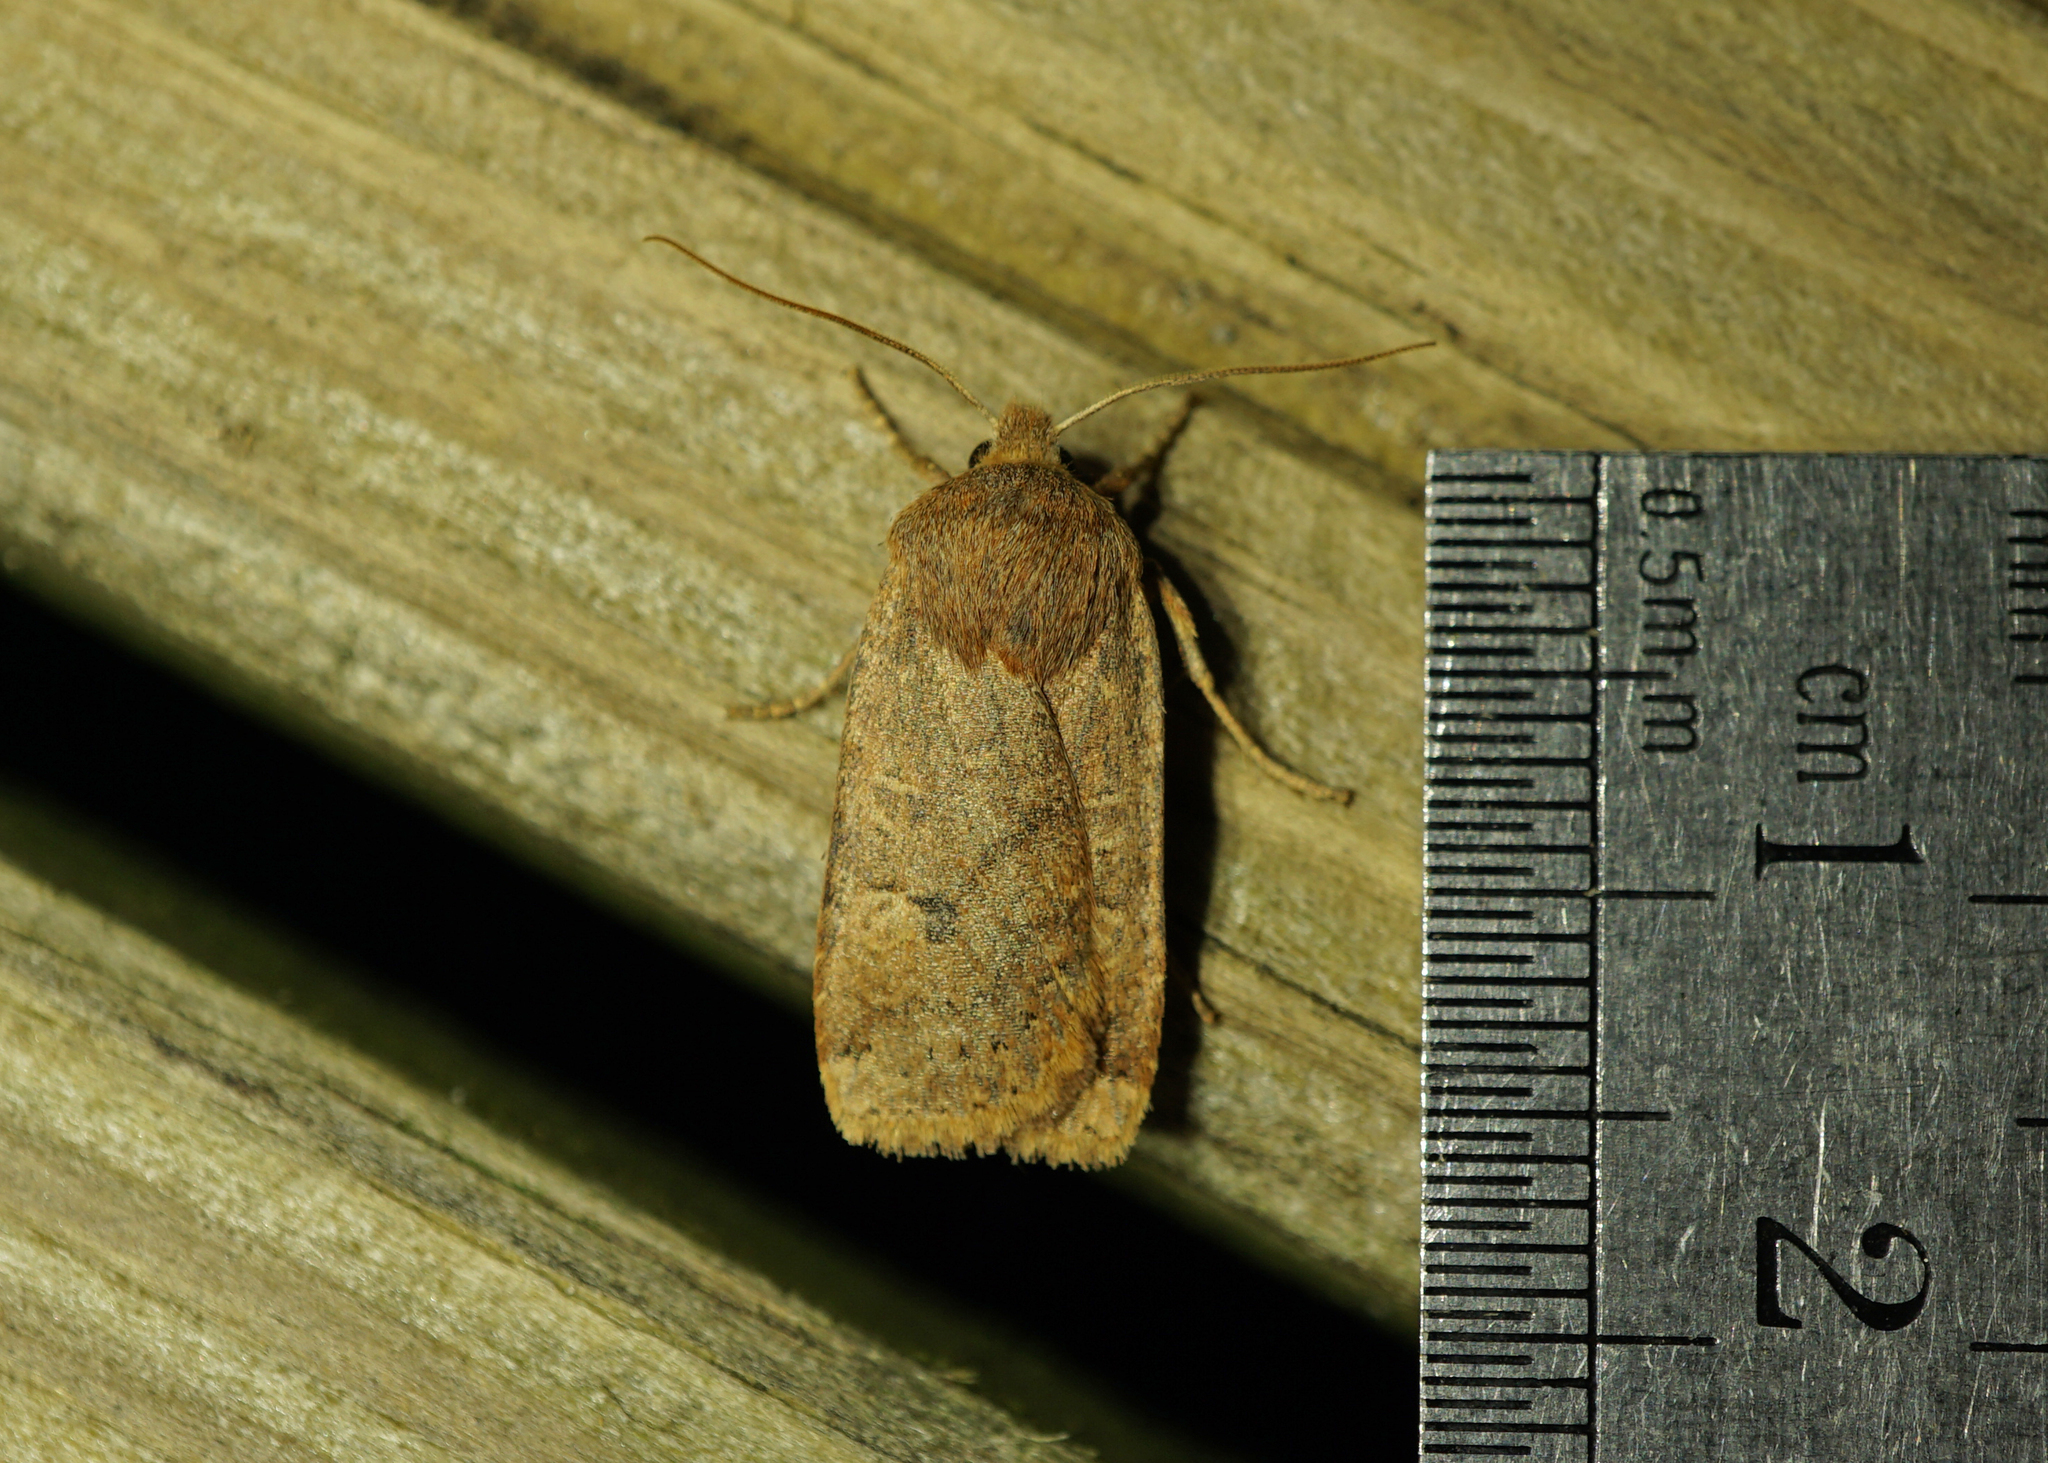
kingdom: Animalia
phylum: Arthropoda
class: Insecta
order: Lepidoptera
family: Noctuidae
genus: Conistra
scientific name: Conistra vaccinii
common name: Chestnut
